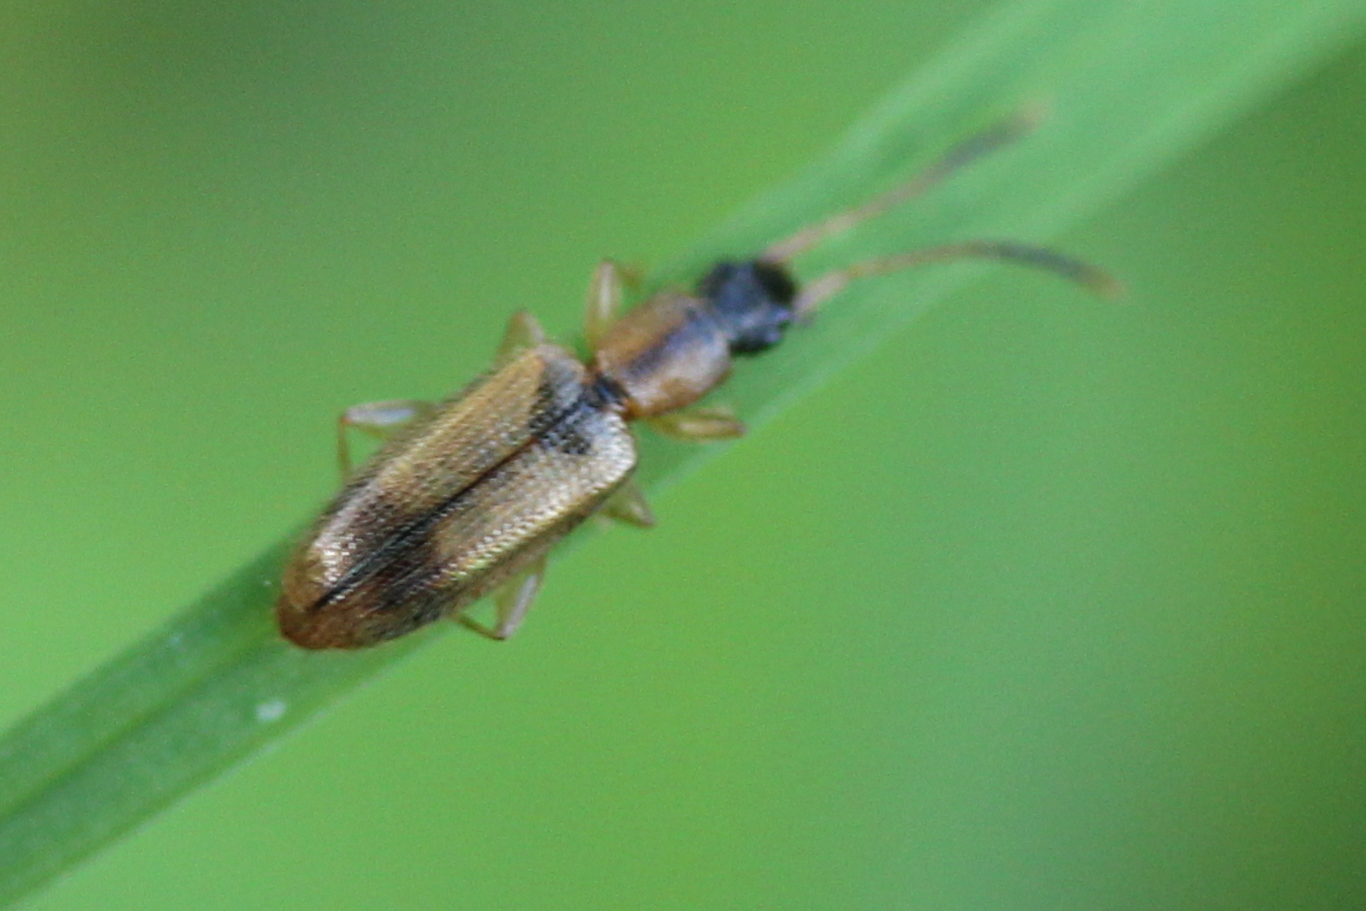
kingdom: Animalia
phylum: Arthropoda
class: Insecta
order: Coleoptera
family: Silvanidae
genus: Telephanus
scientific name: Telephanus velox
